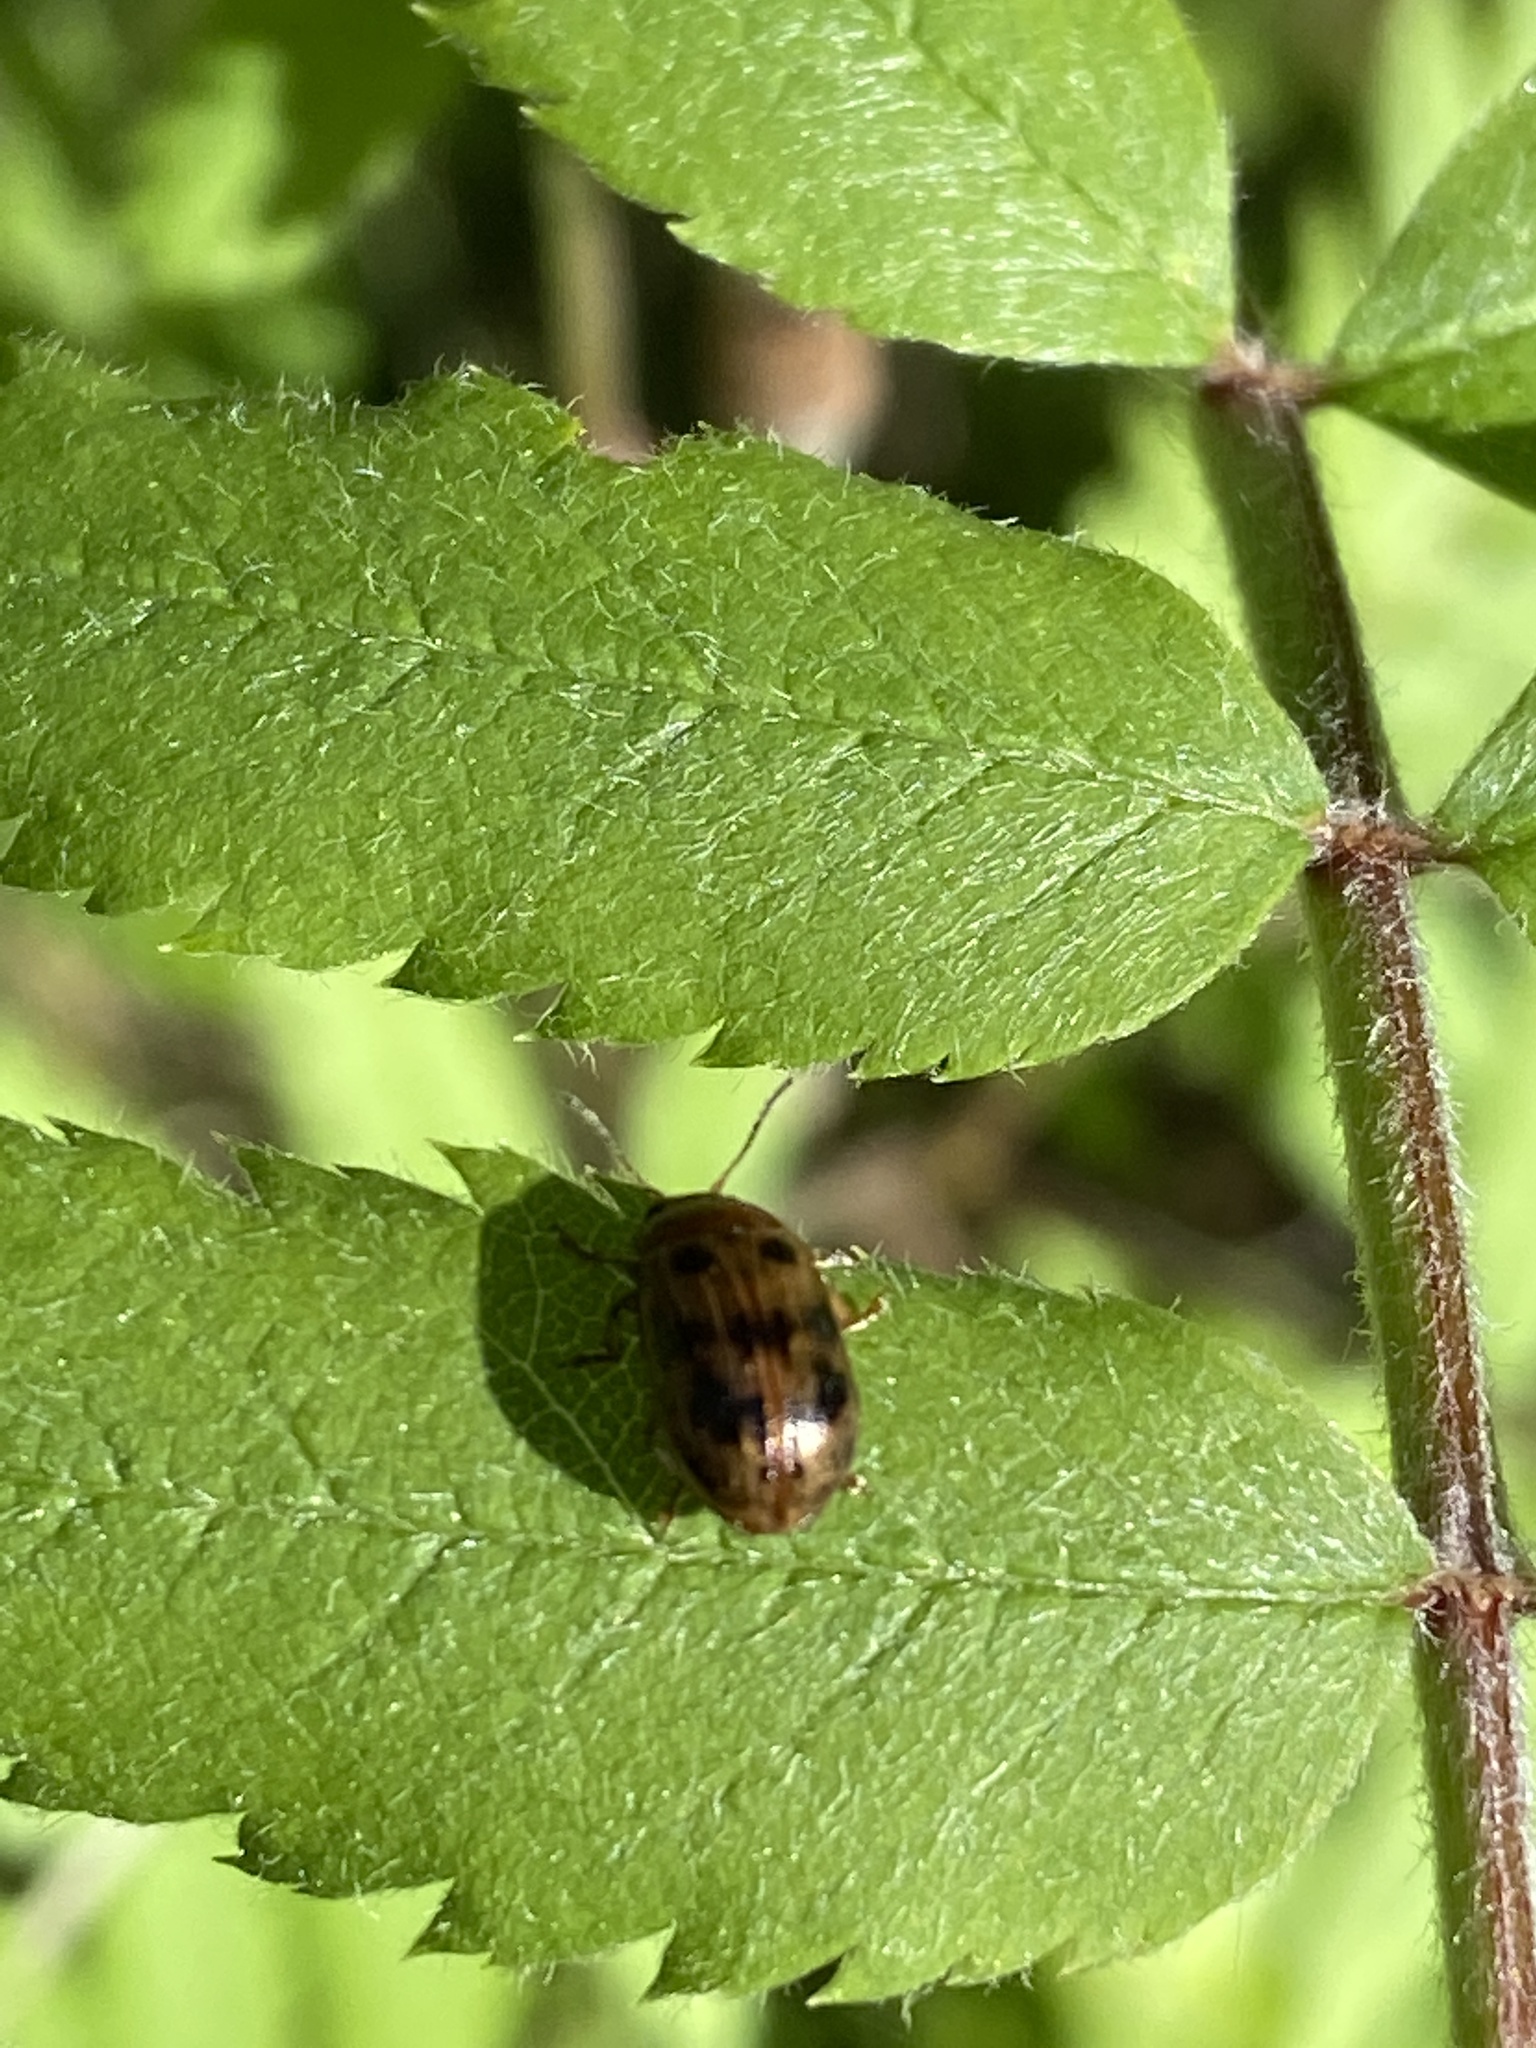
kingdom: Animalia
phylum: Arthropoda
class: Insecta
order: Coleoptera
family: Chrysomelidae
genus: Gonioctena
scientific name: Gonioctena quinquepunctata
